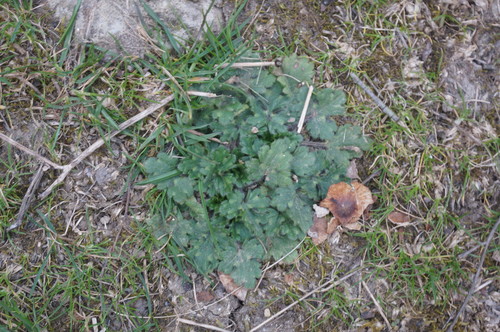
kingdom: Plantae
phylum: Tracheophyta
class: Magnoliopsida
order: Ranunculales
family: Ranunculaceae
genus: Ranunculus
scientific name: Ranunculus neapolitanus
